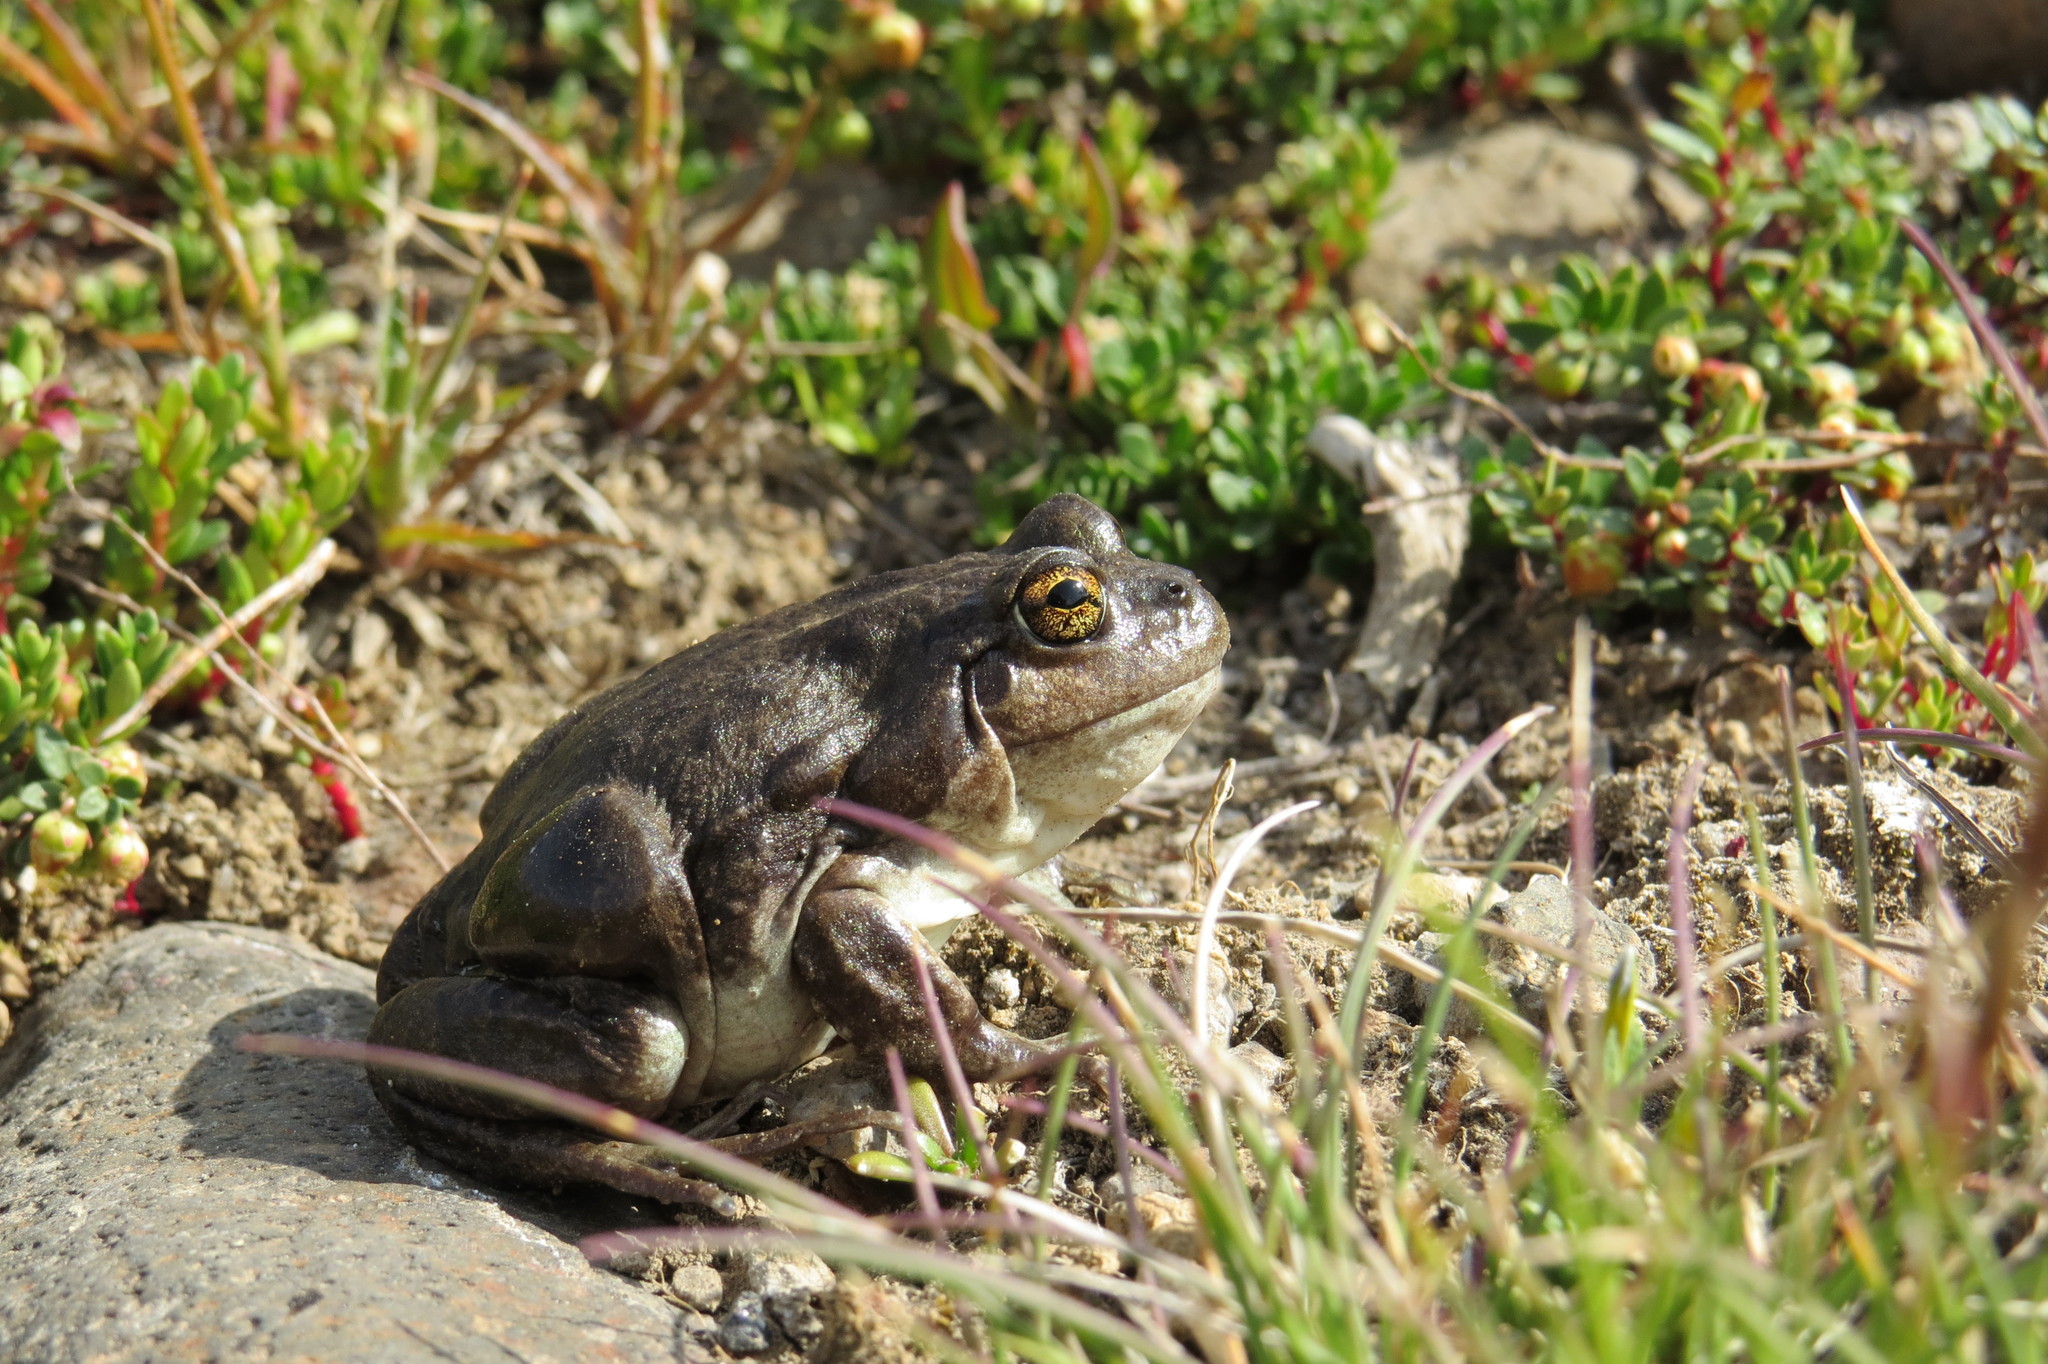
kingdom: Animalia
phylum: Chordata
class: Amphibia
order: Anura
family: Leptodactylidae
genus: Pleurodema
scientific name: Pleurodema bufoninum
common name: Large four-eyed frog
